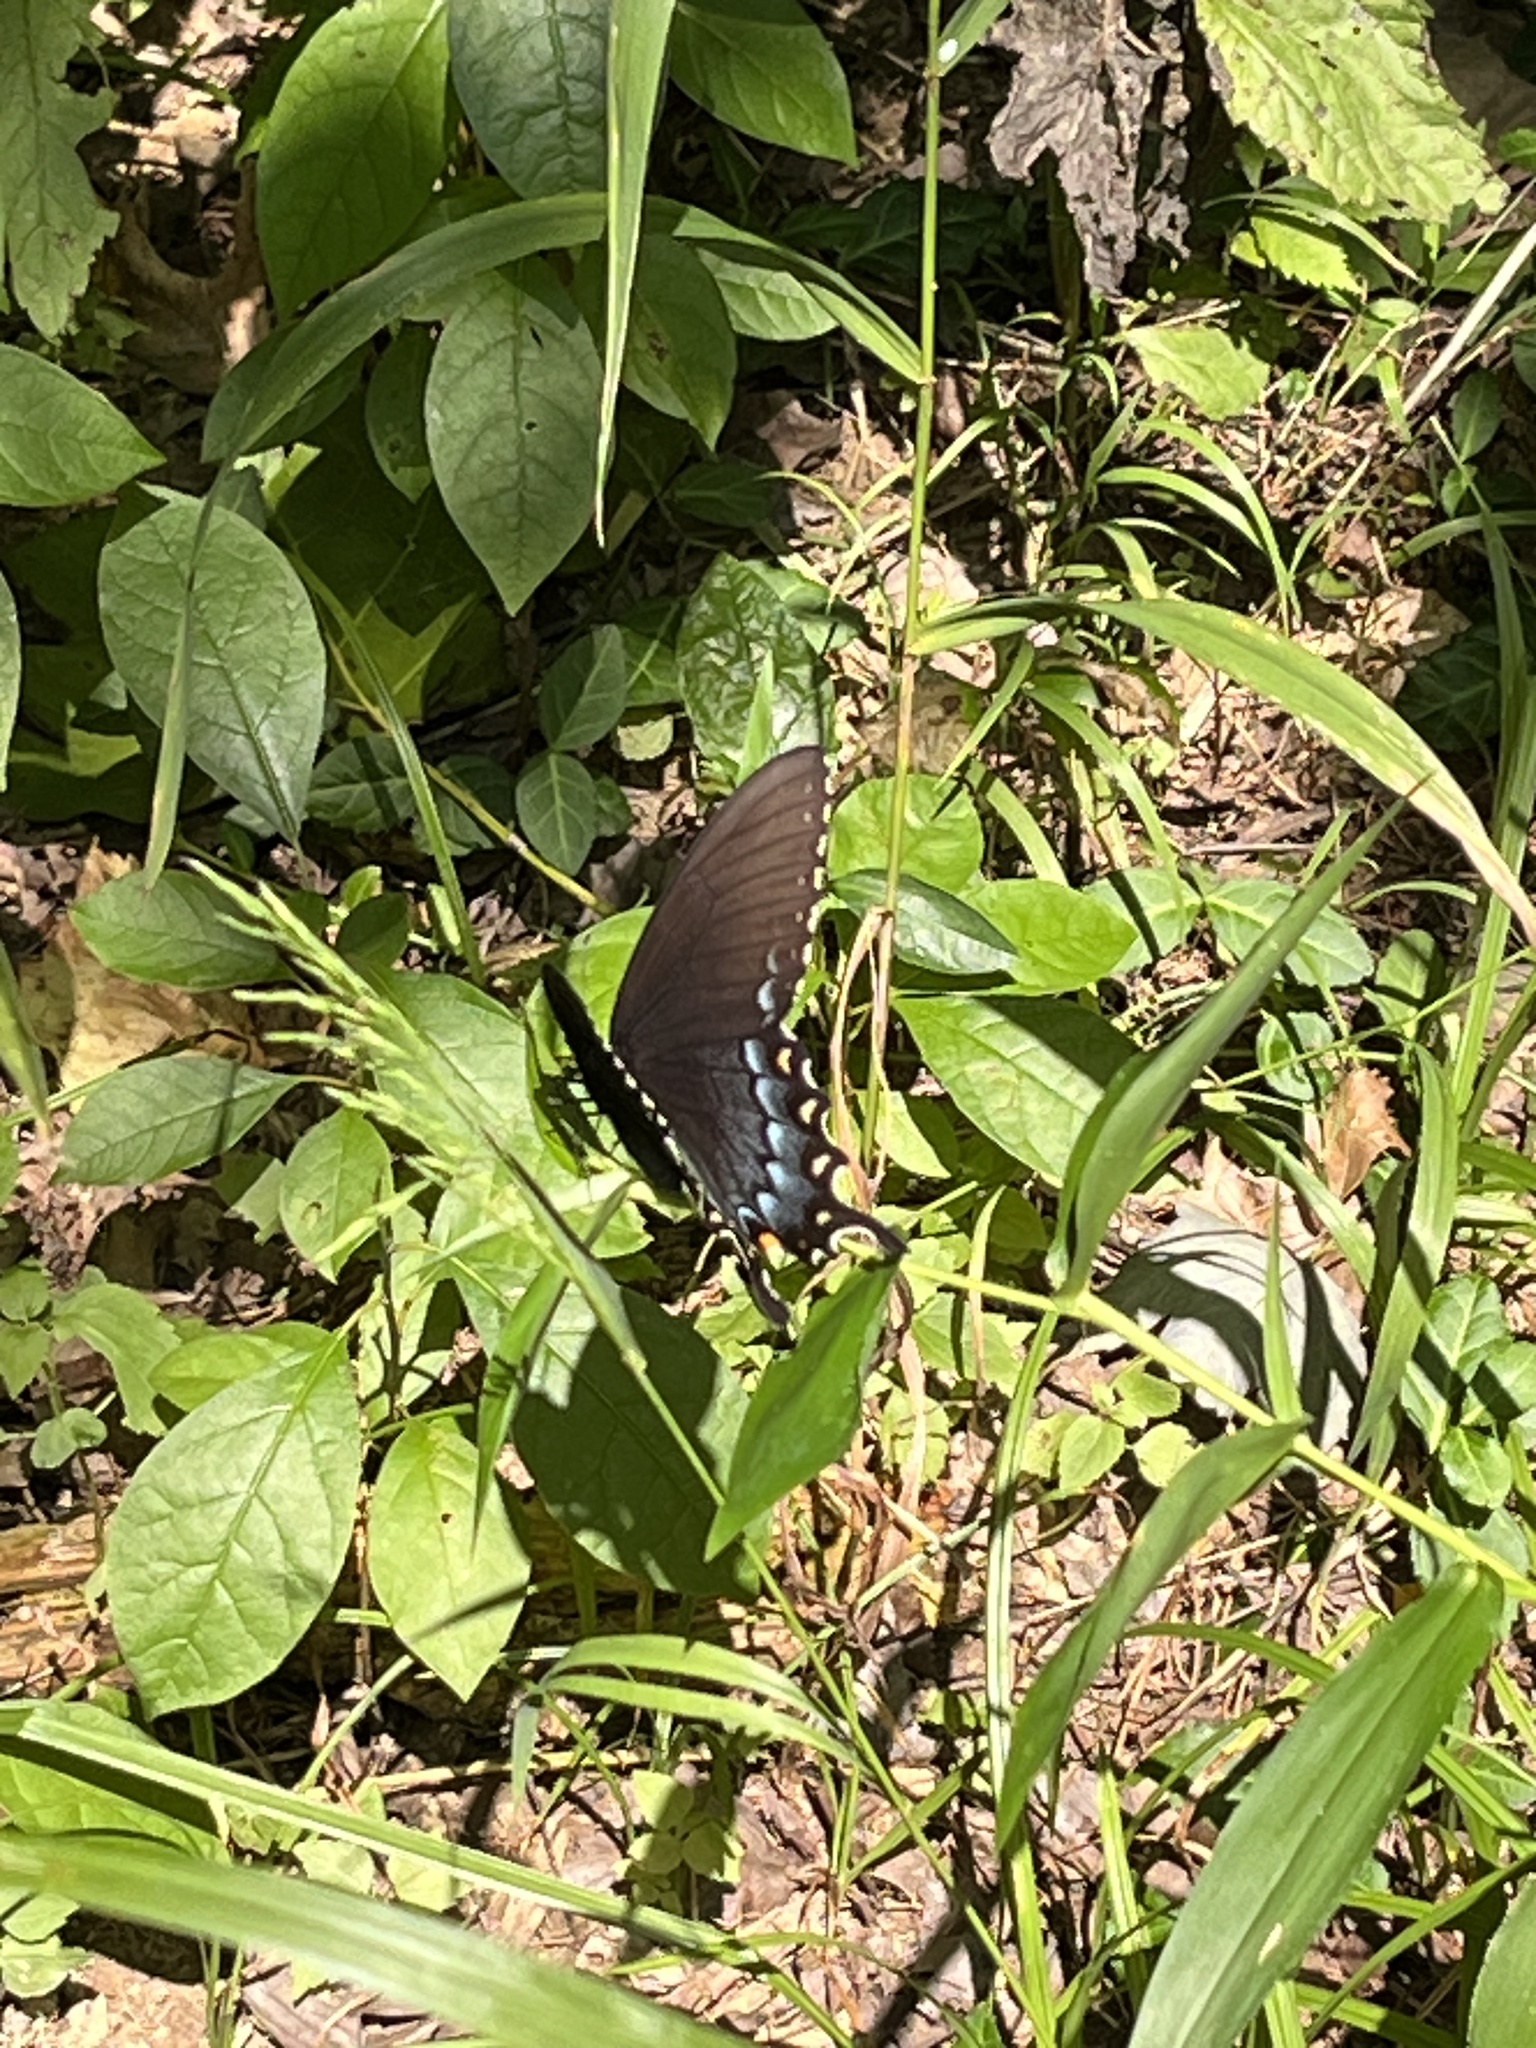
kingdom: Animalia
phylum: Arthropoda
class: Insecta
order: Lepidoptera
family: Papilionidae
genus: Papilio
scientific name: Papilio glaucus
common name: Tiger swallowtail
